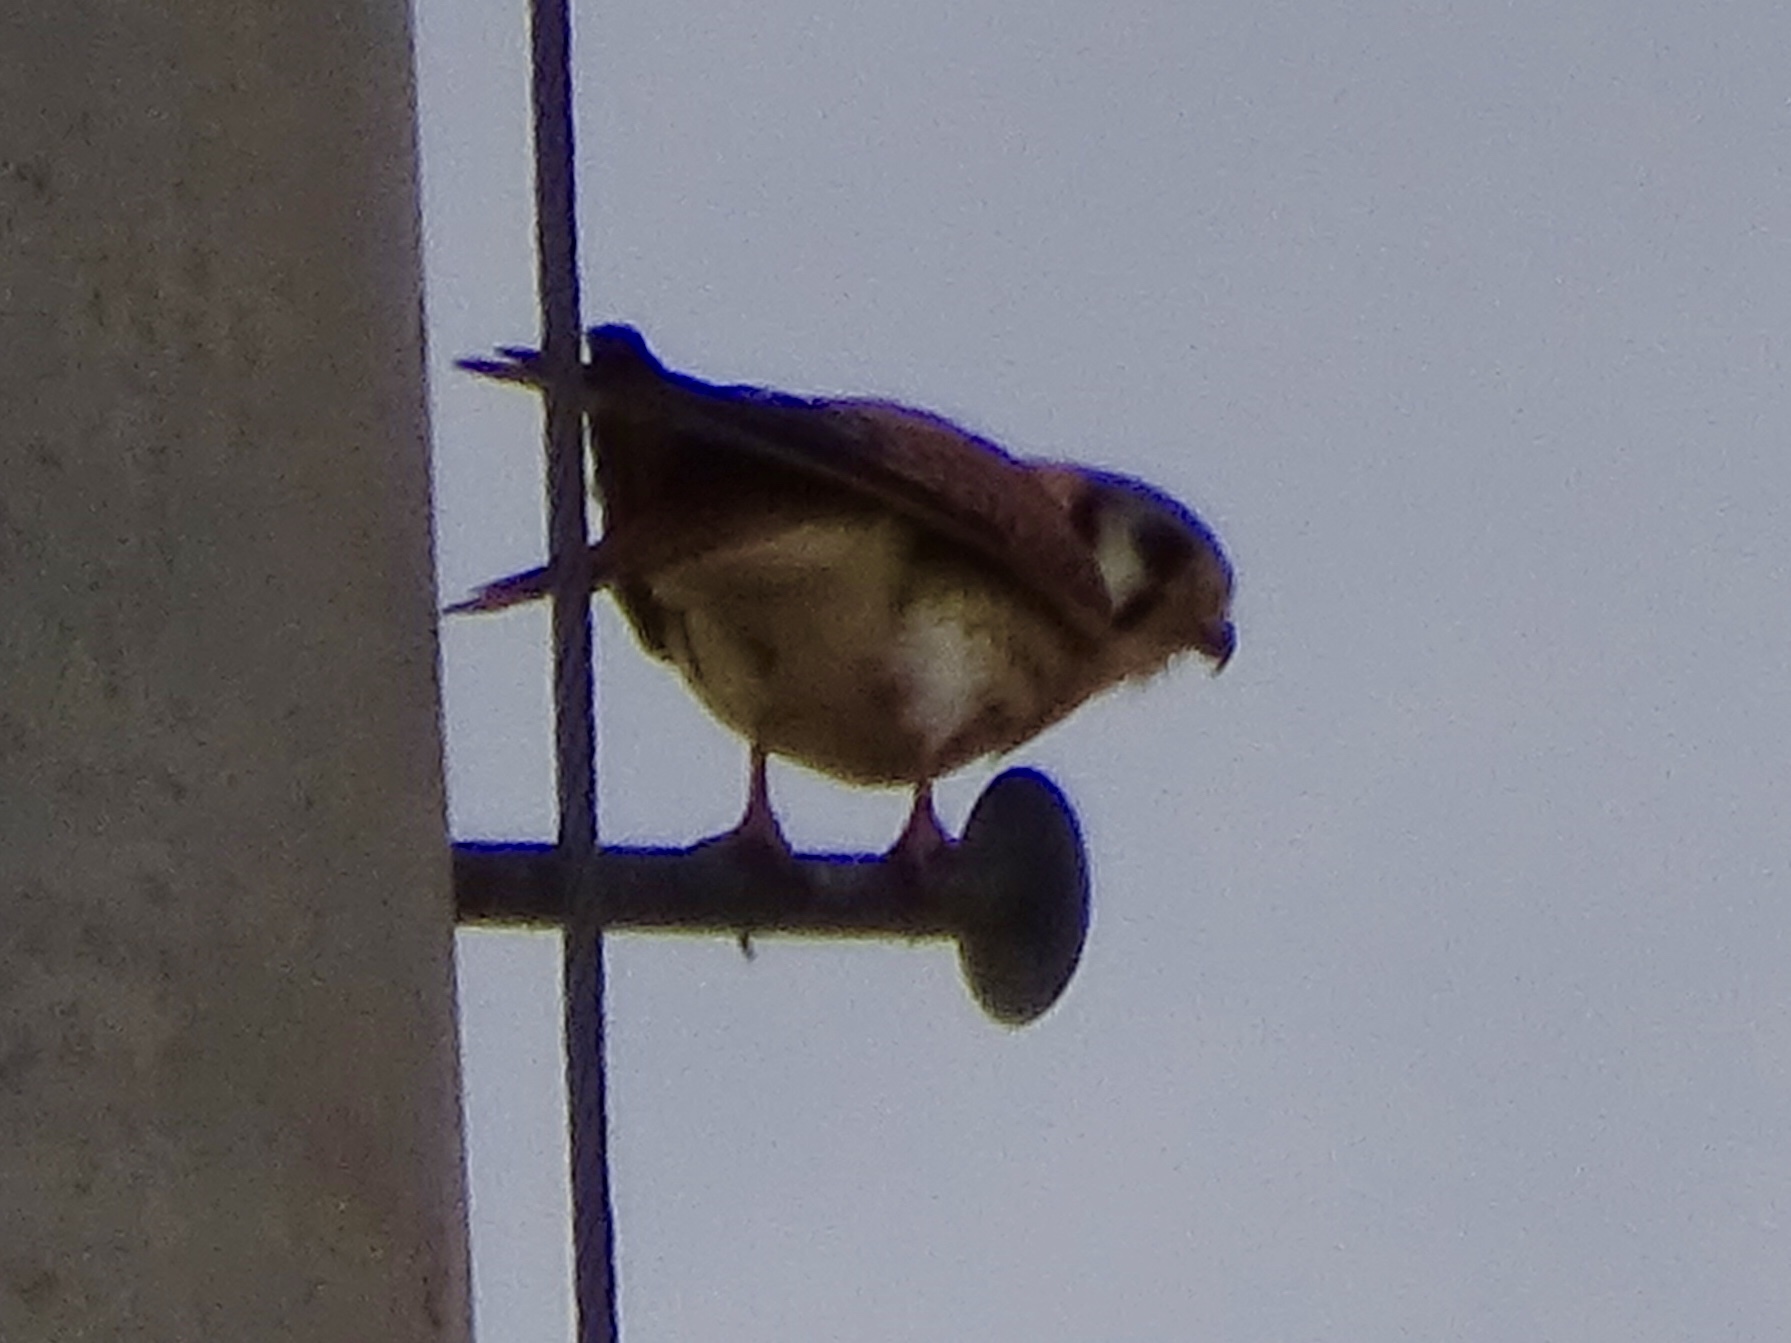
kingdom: Animalia
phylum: Chordata
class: Aves
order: Falconiformes
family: Falconidae
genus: Falco
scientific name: Falco sparverius
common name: American kestrel
